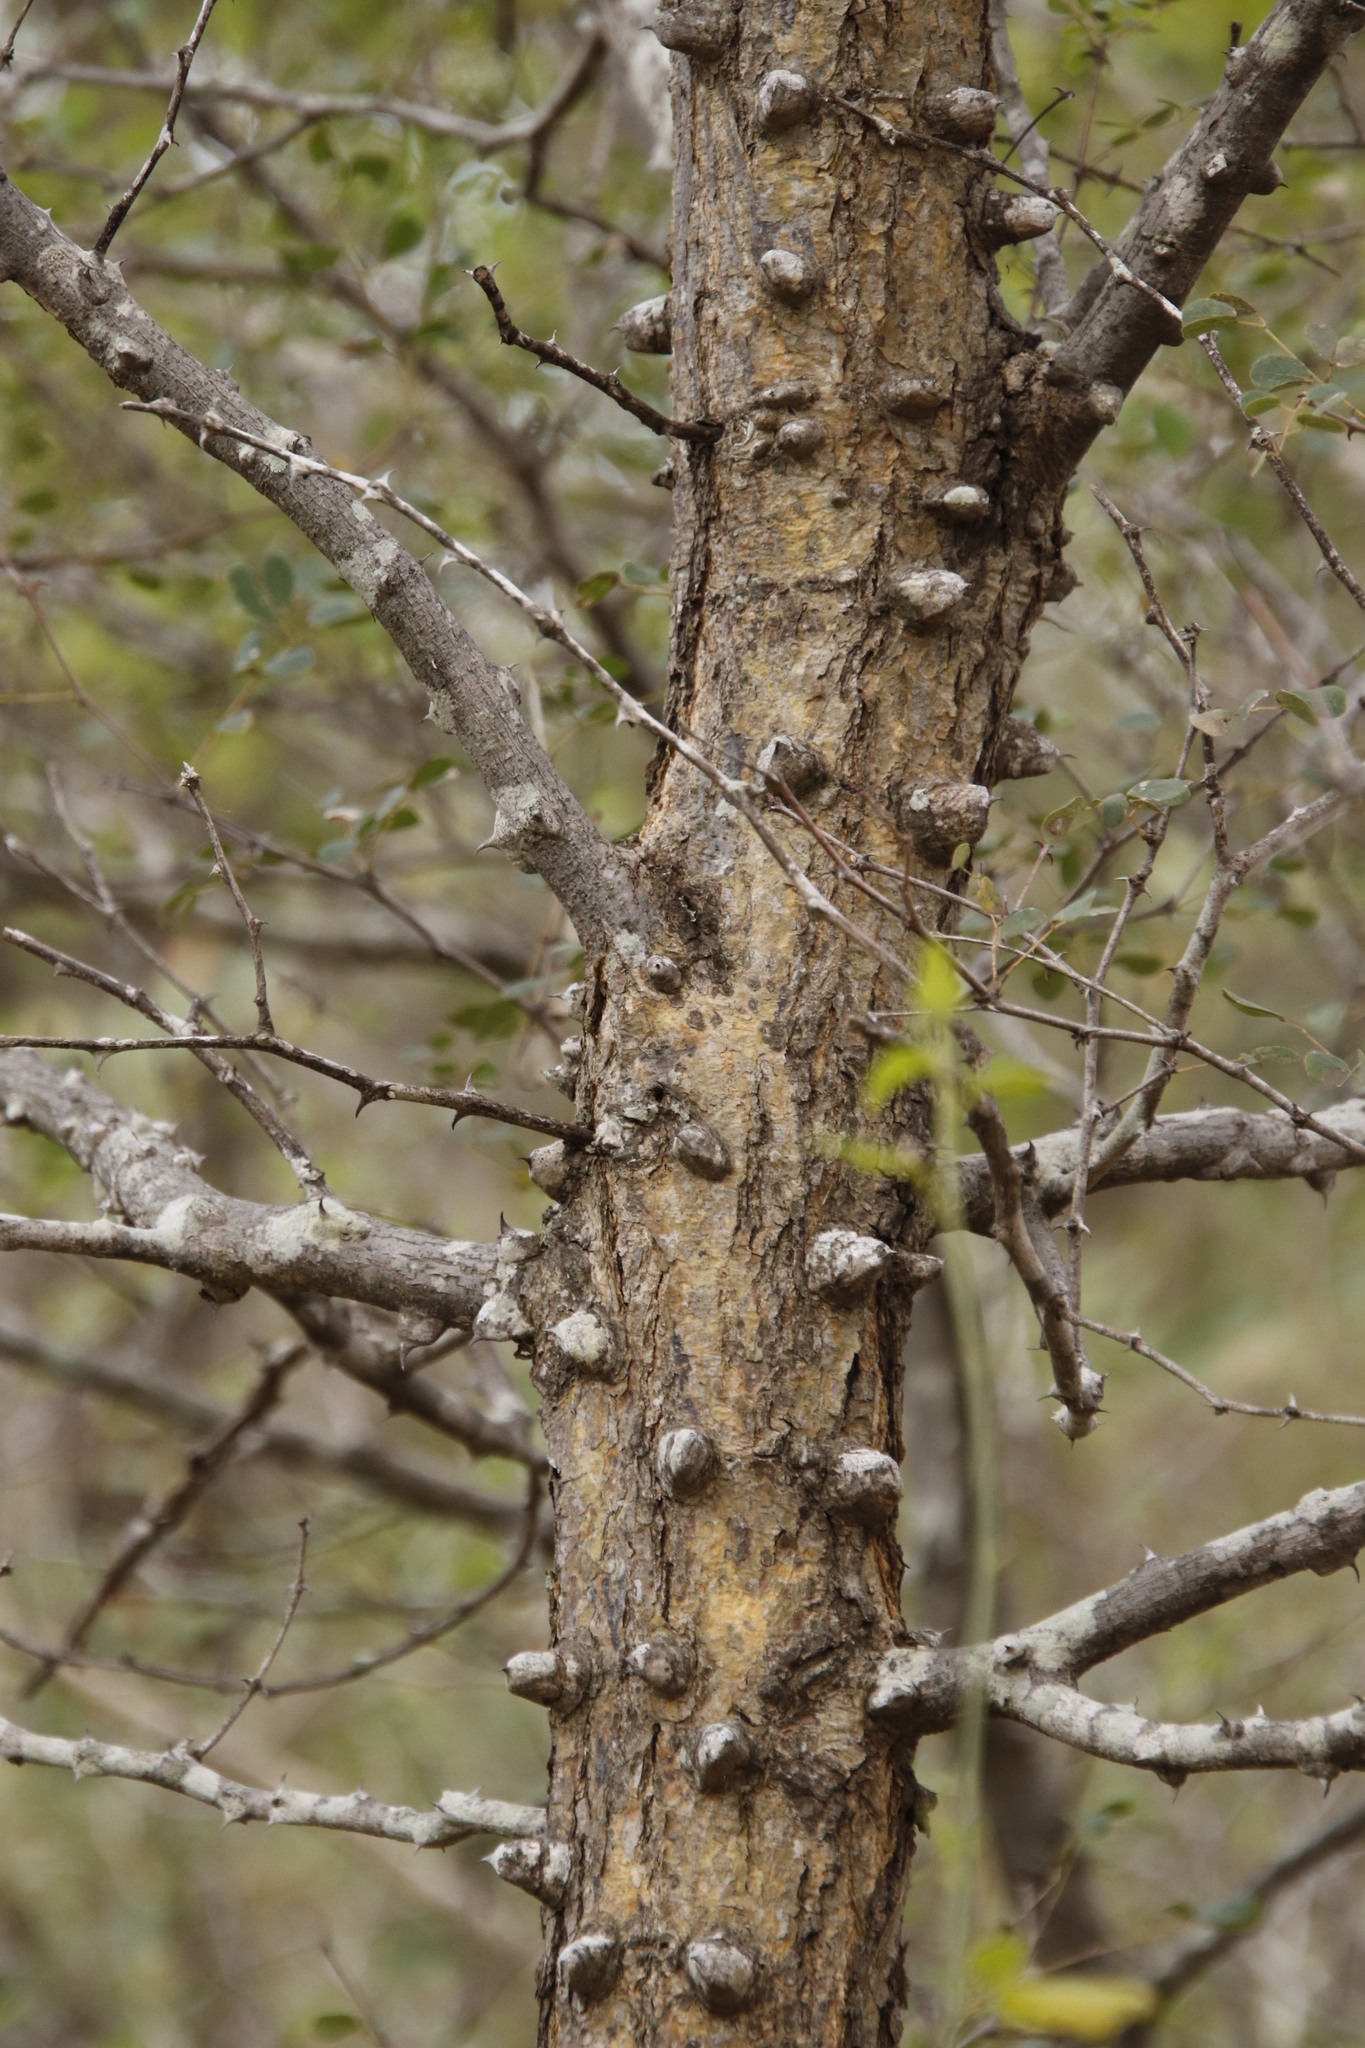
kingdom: Plantae
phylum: Tracheophyta
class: Magnoliopsida
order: Fabales
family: Fabaceae
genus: Senegalia
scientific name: Senegalia nigrescens
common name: Knobthorn
